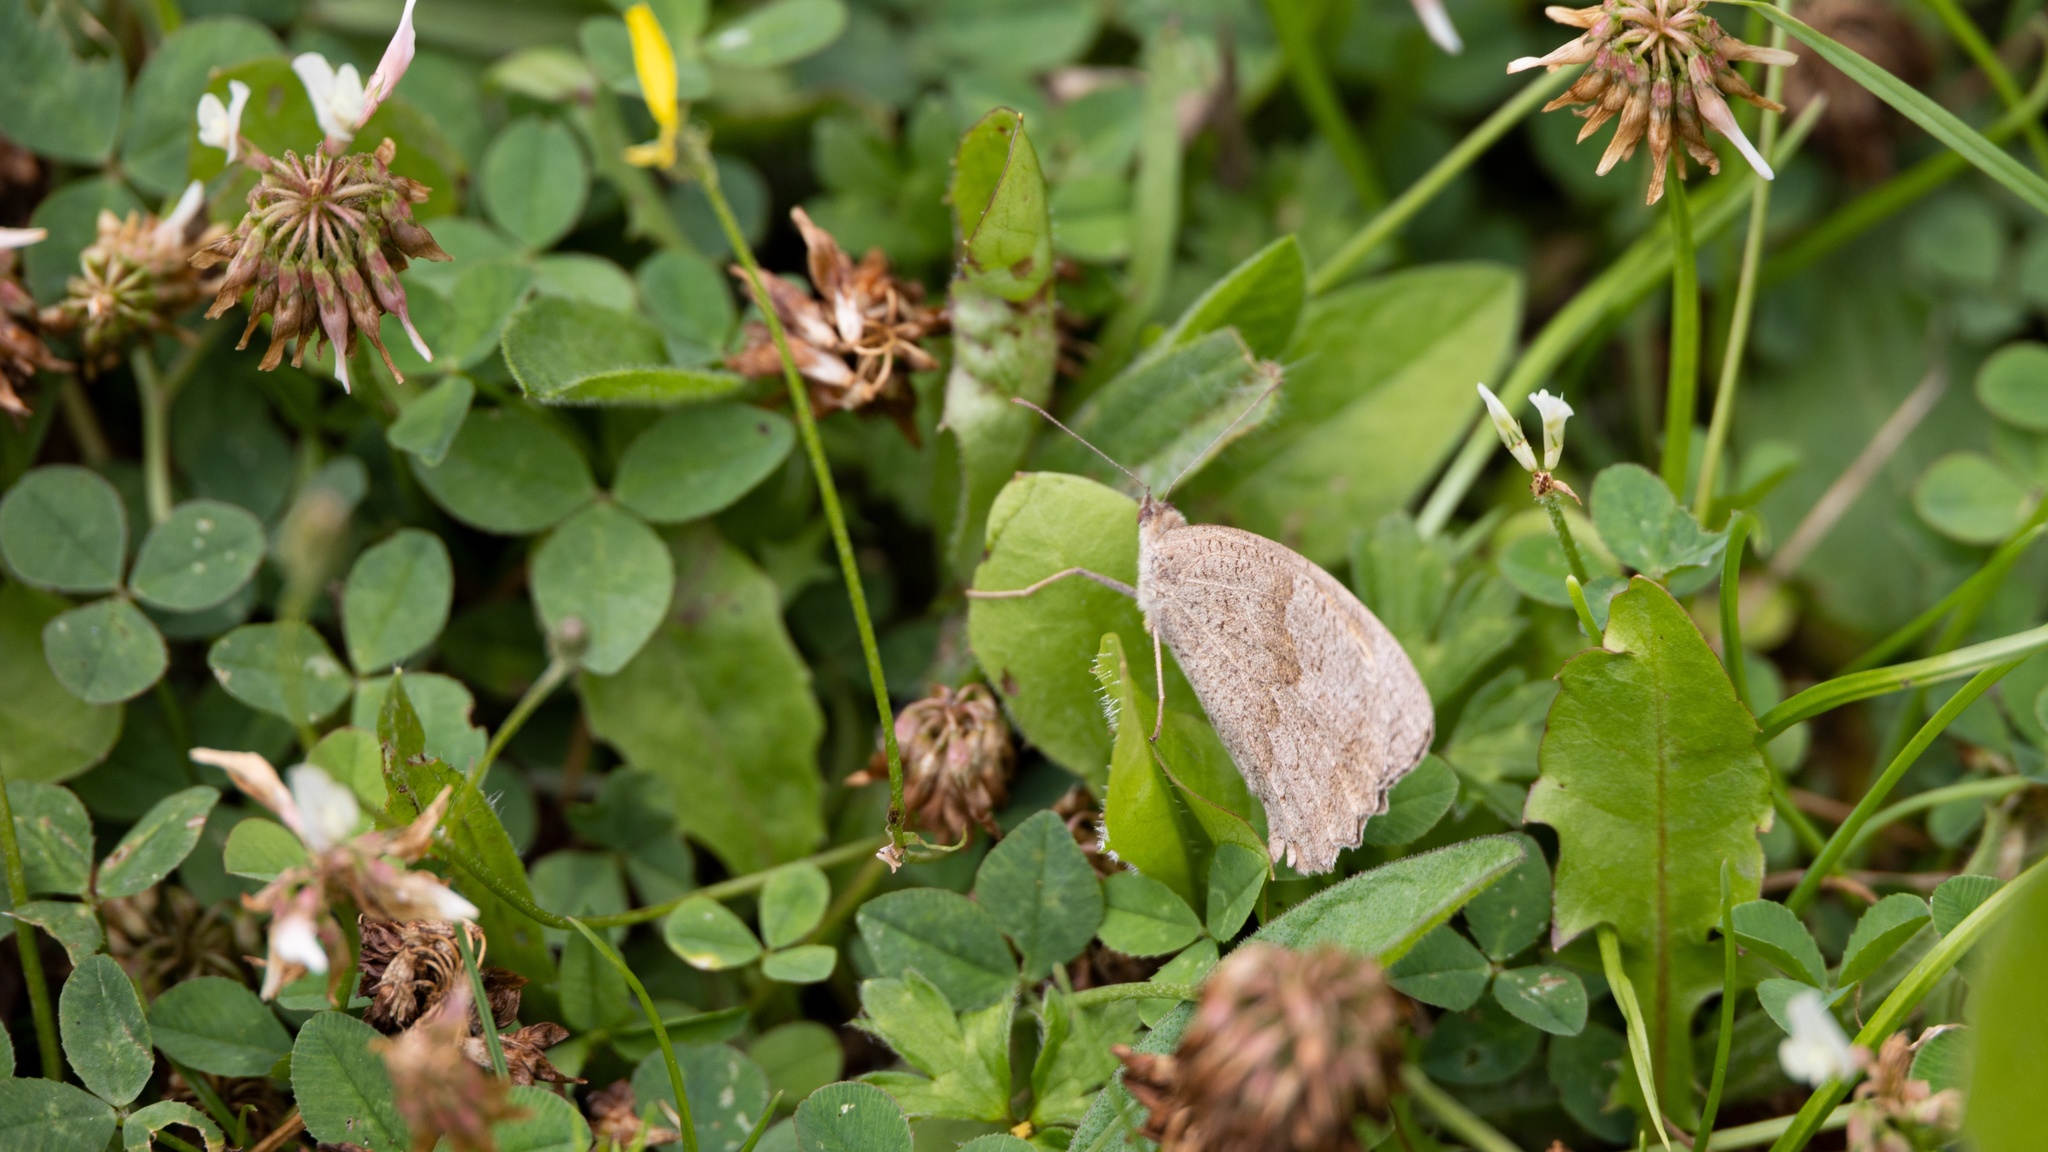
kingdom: Animalia
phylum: Arthropoda
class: Insecta
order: Lepidoptera
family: Nymphalidae
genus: Maniola
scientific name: Maniola jurtina
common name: Meadow brown
